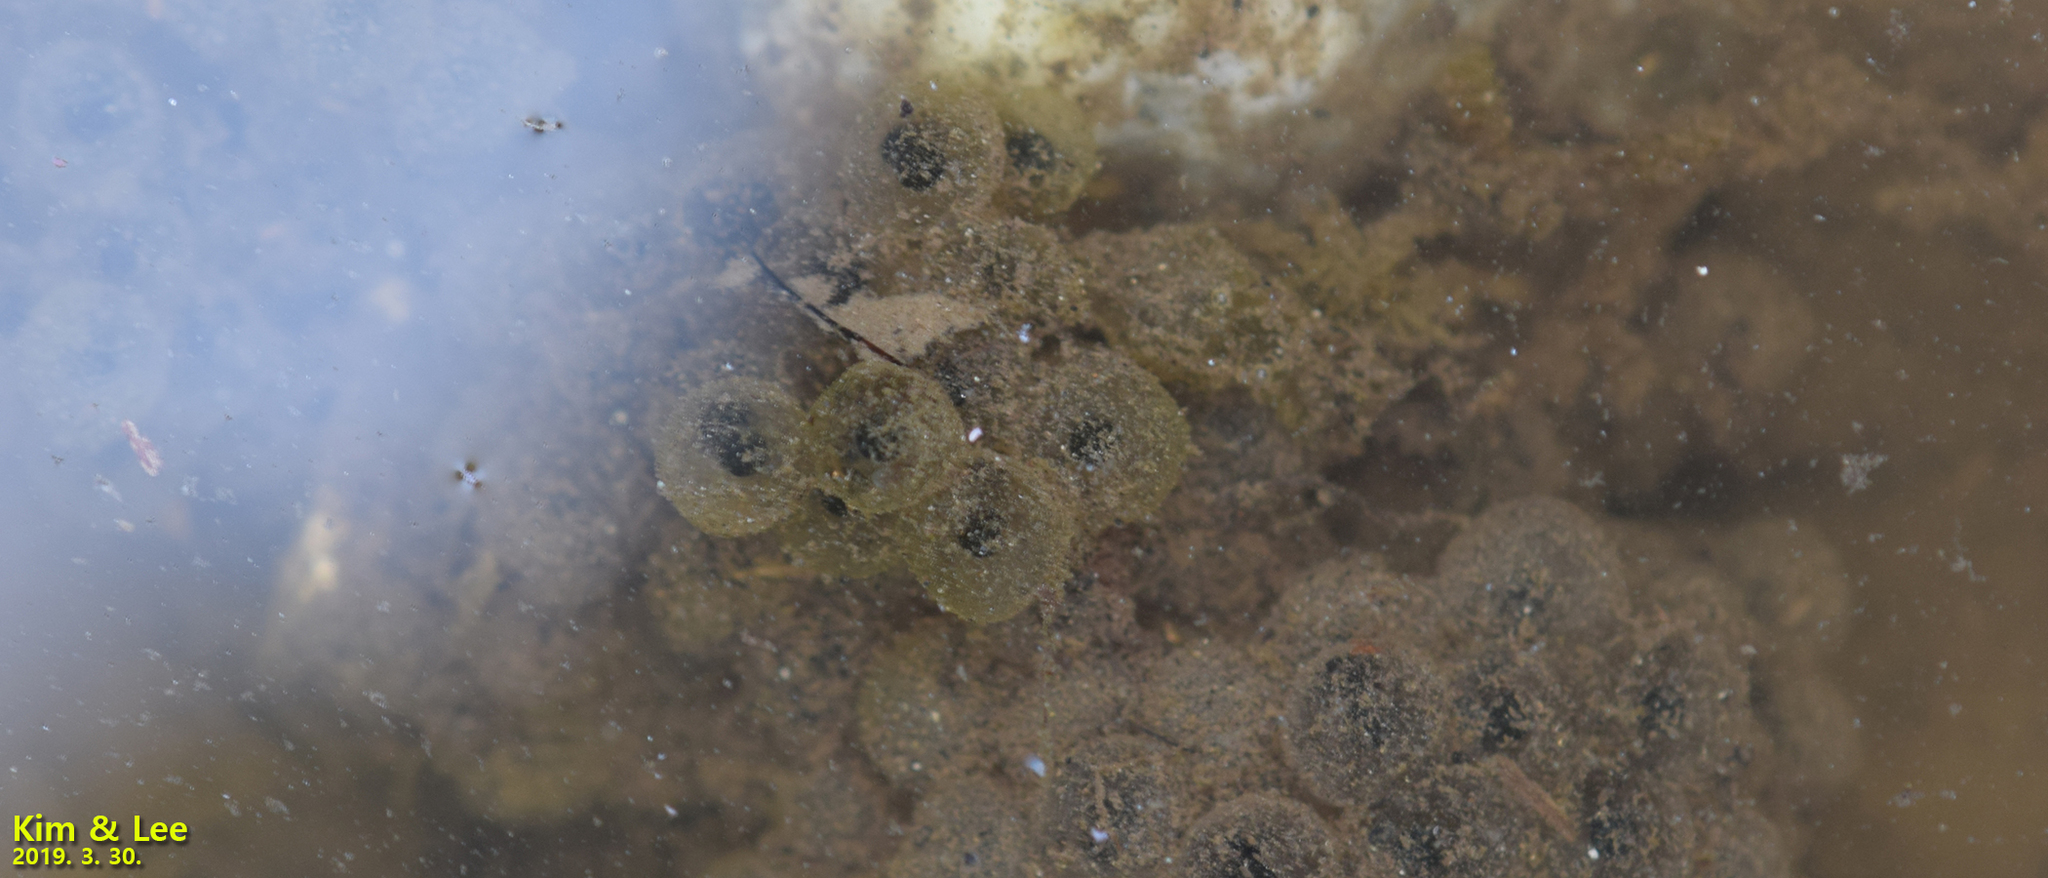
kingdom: Animalia
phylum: Chordata
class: Amphibia
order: Anura
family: Ranidae
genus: Rana
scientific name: Rana huanrenensis
